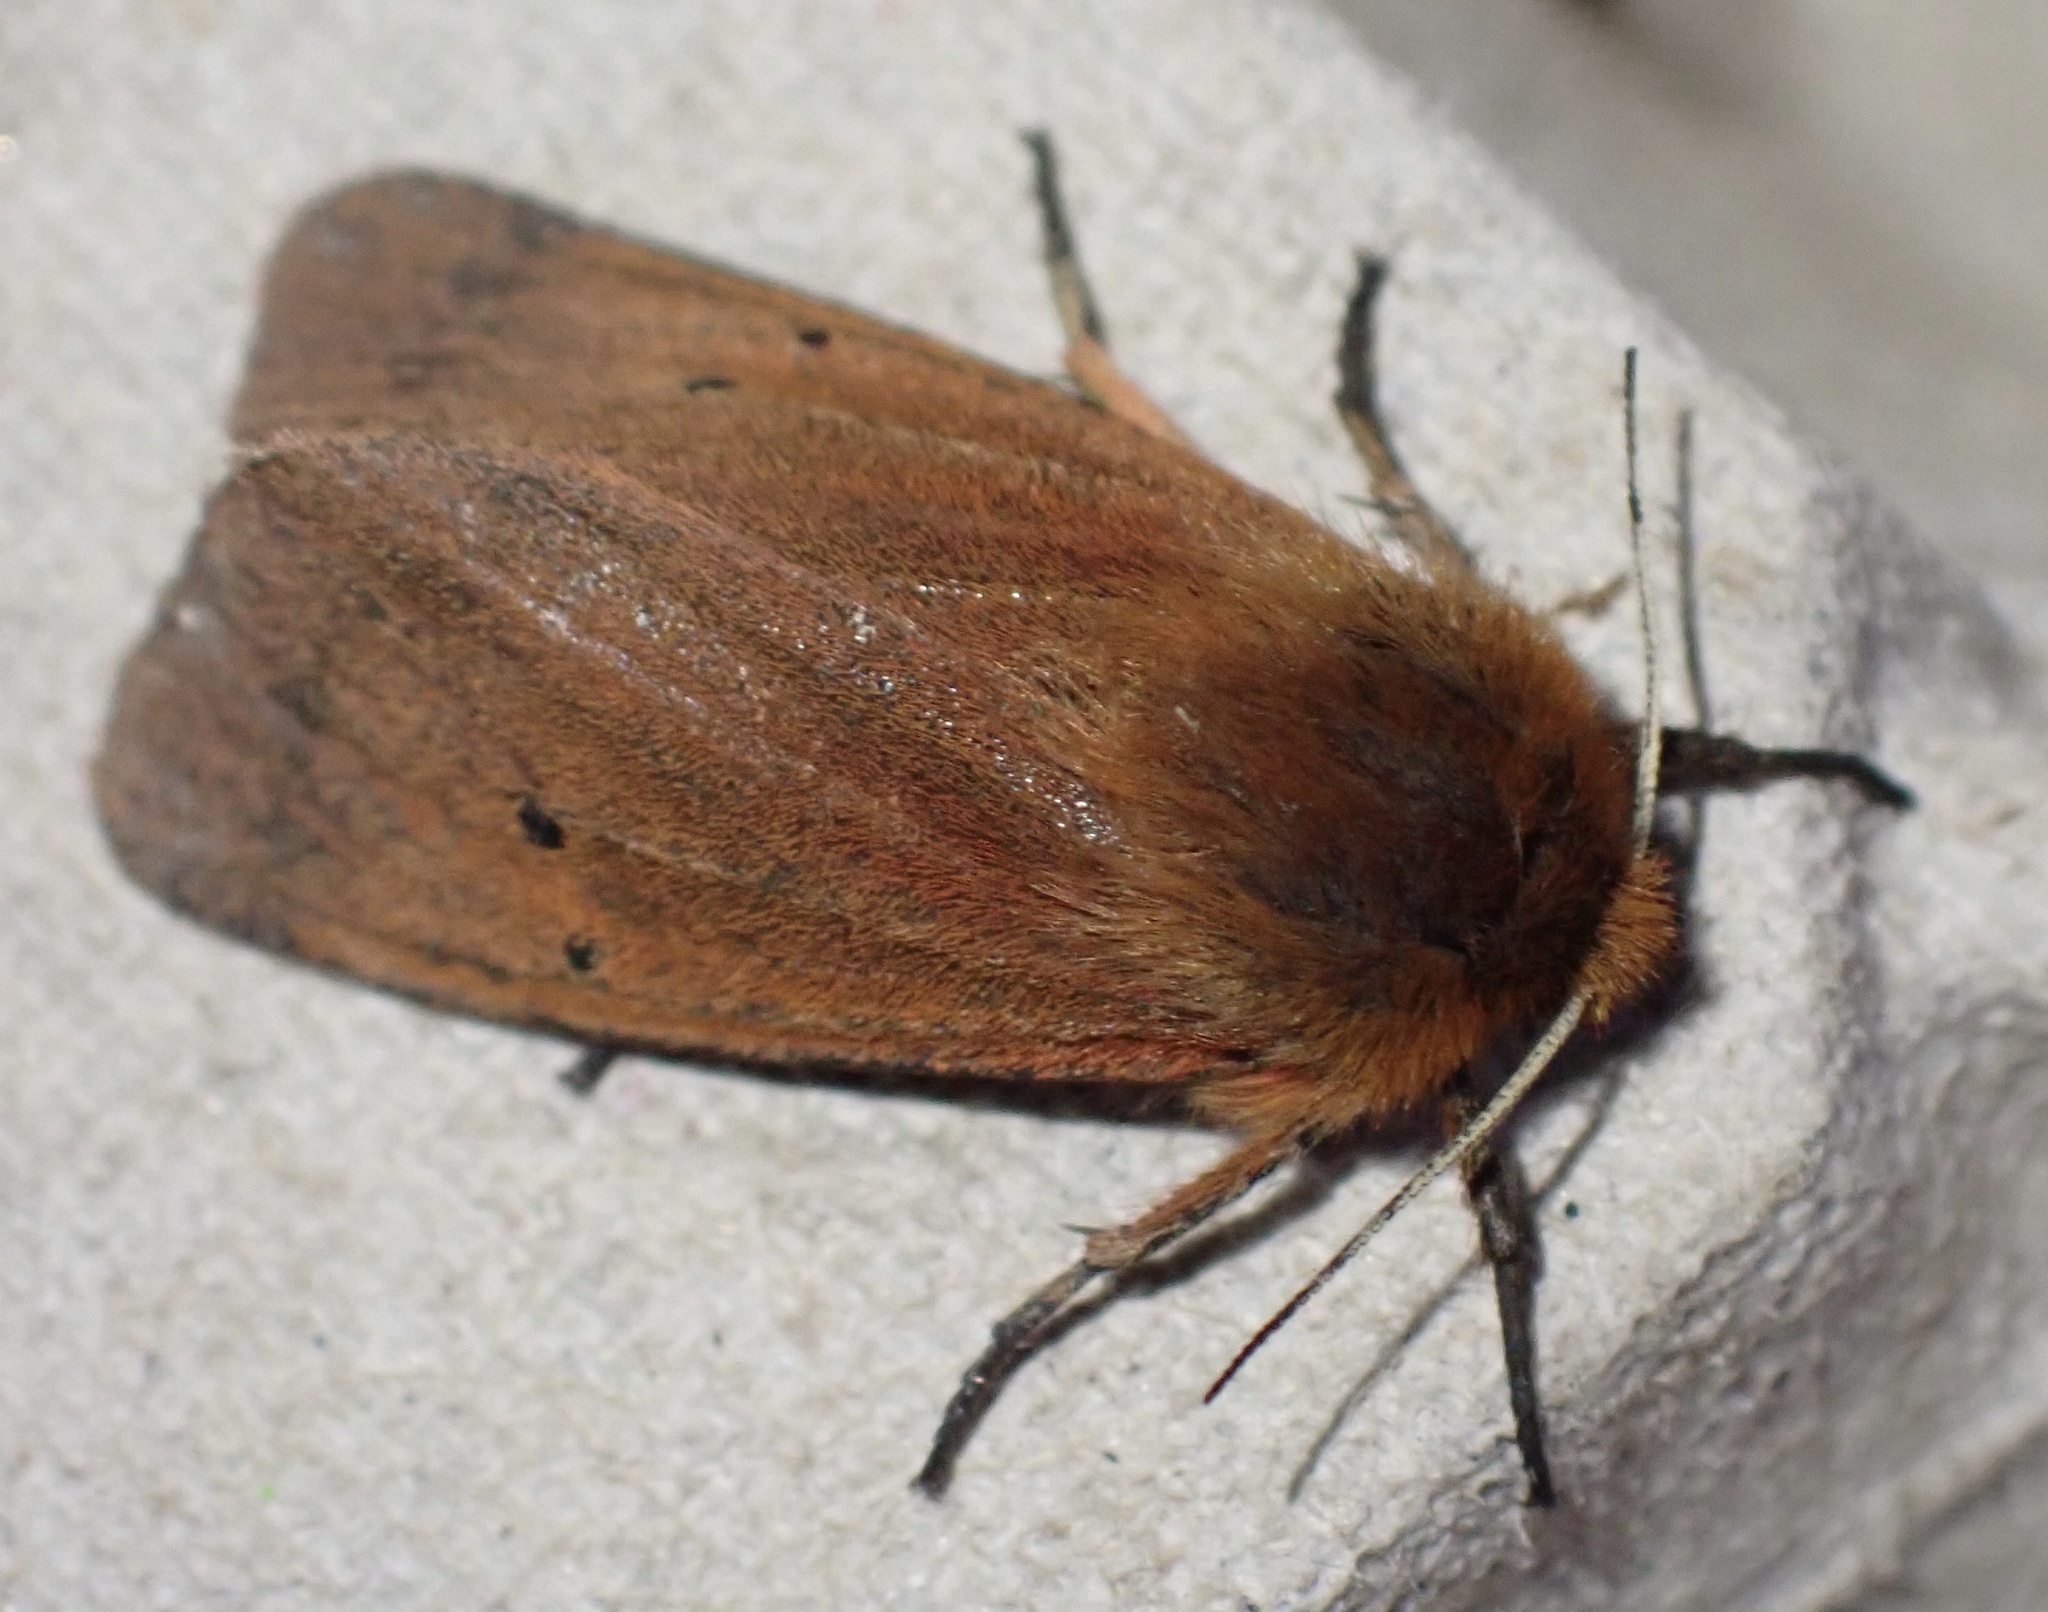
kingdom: Animalia
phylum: Arthropoda
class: Insecta
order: Lepidoptera
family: Erebidae
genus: Phragmatobia
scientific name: Phragmatobia fuliginosa
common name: Ruby tiger
